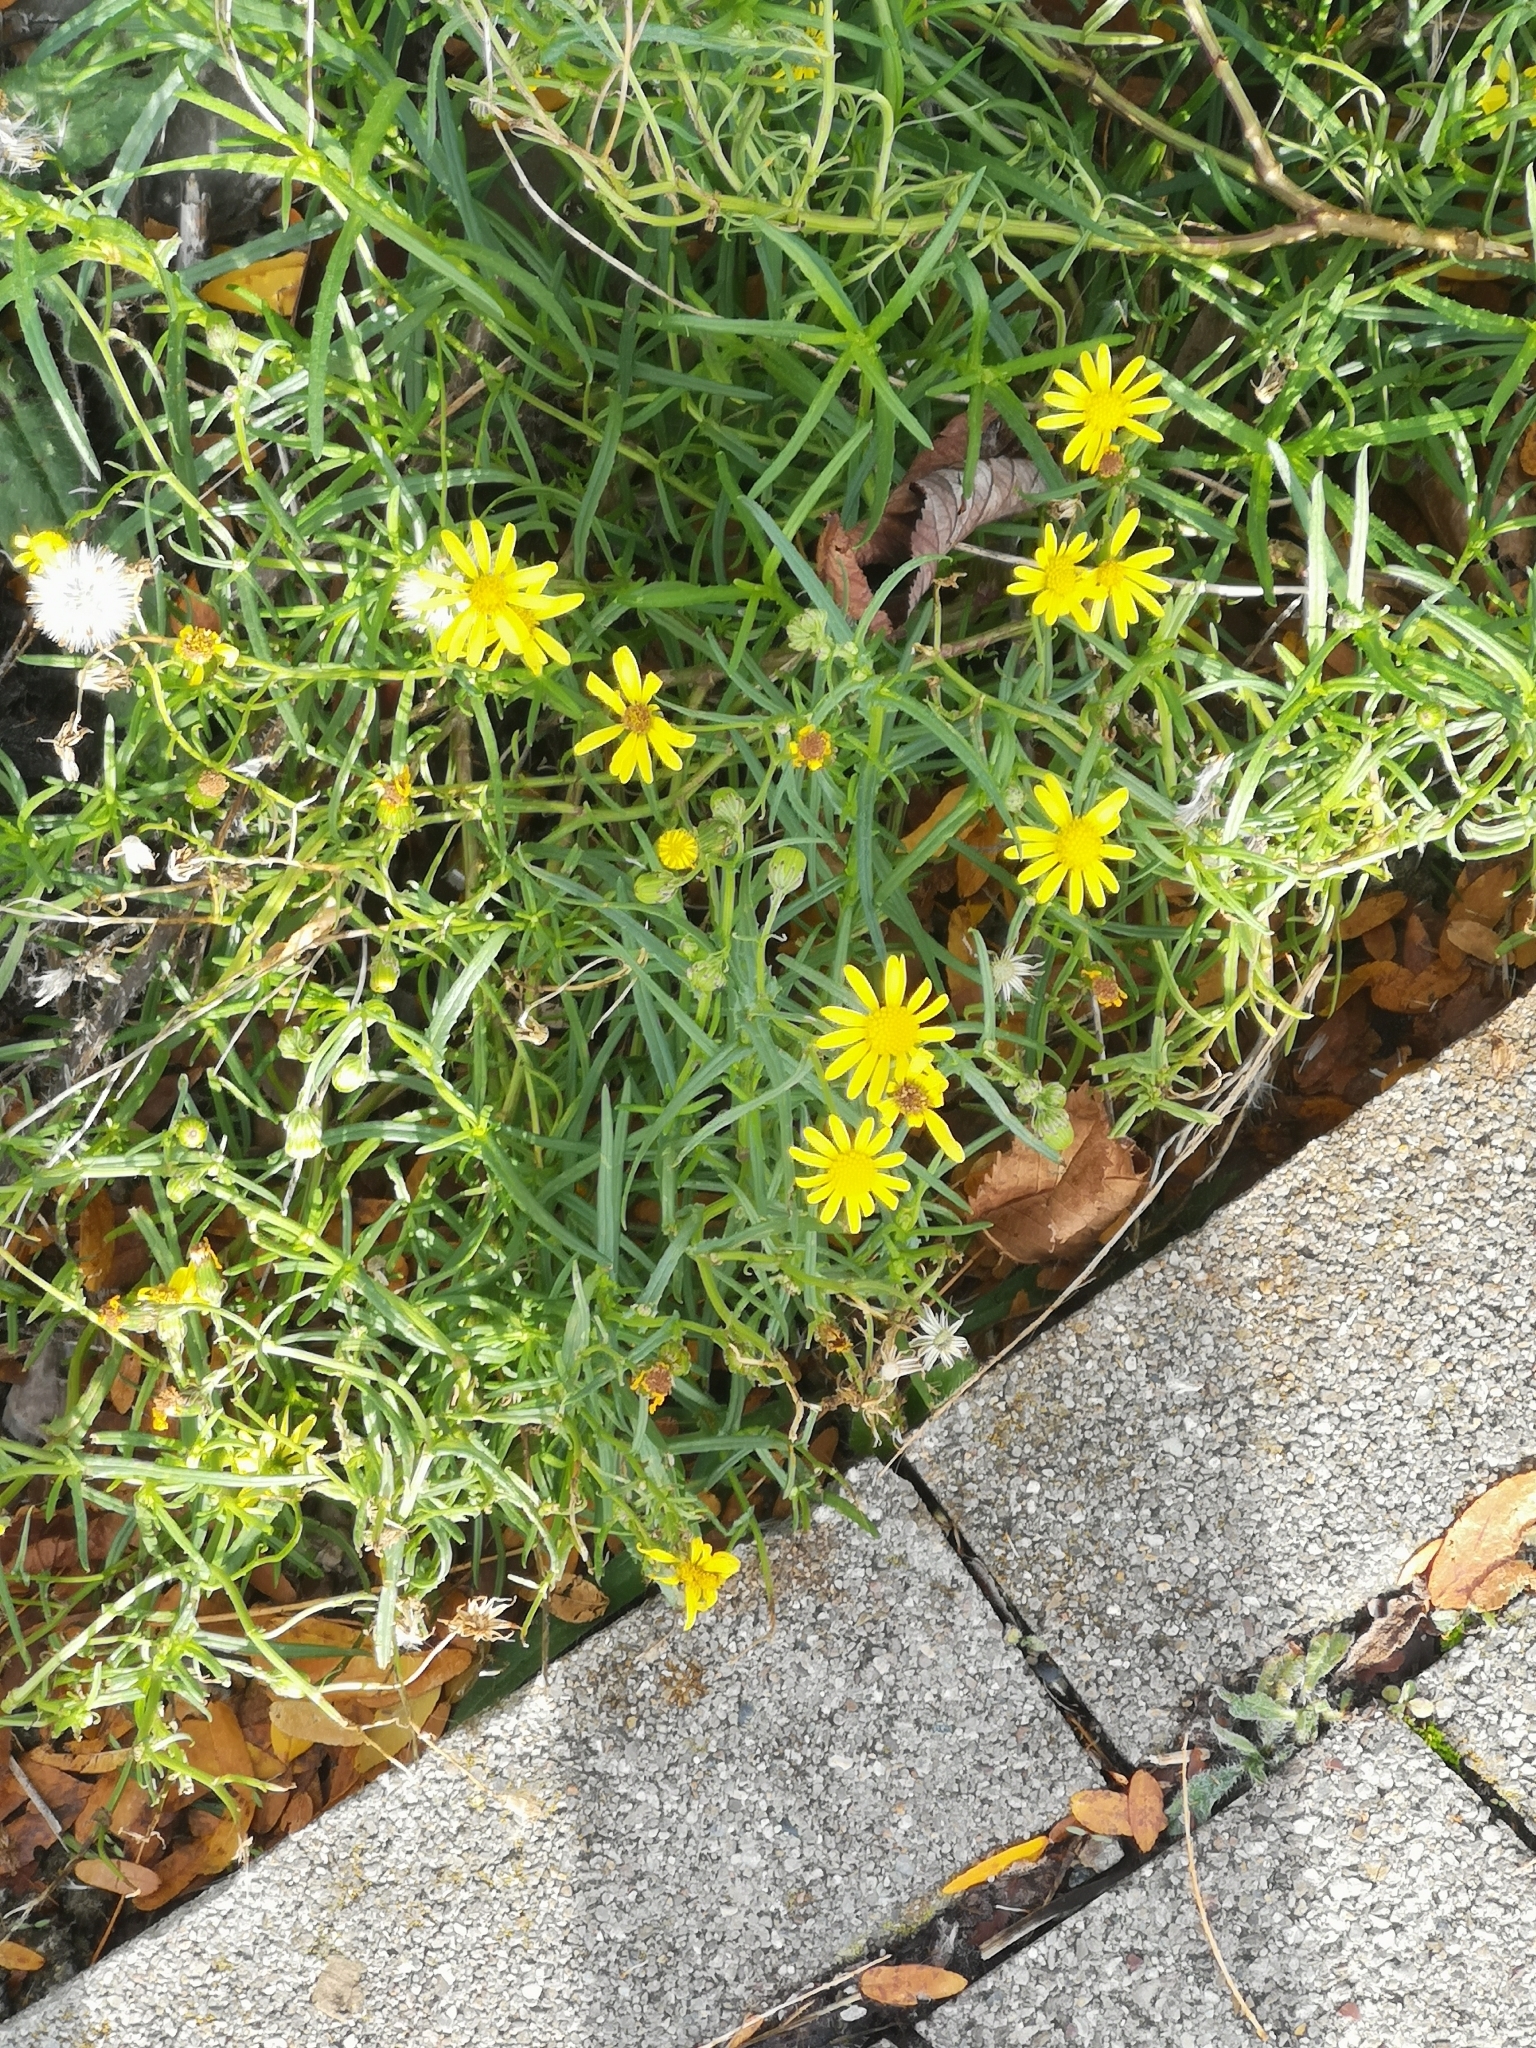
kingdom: Plantae
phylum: Tracheophyta
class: Magnoliopsida
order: Asterales
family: Asteraceae
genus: Senecio
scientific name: Senecio inaequidens
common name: Narrow-leaved ragwort
